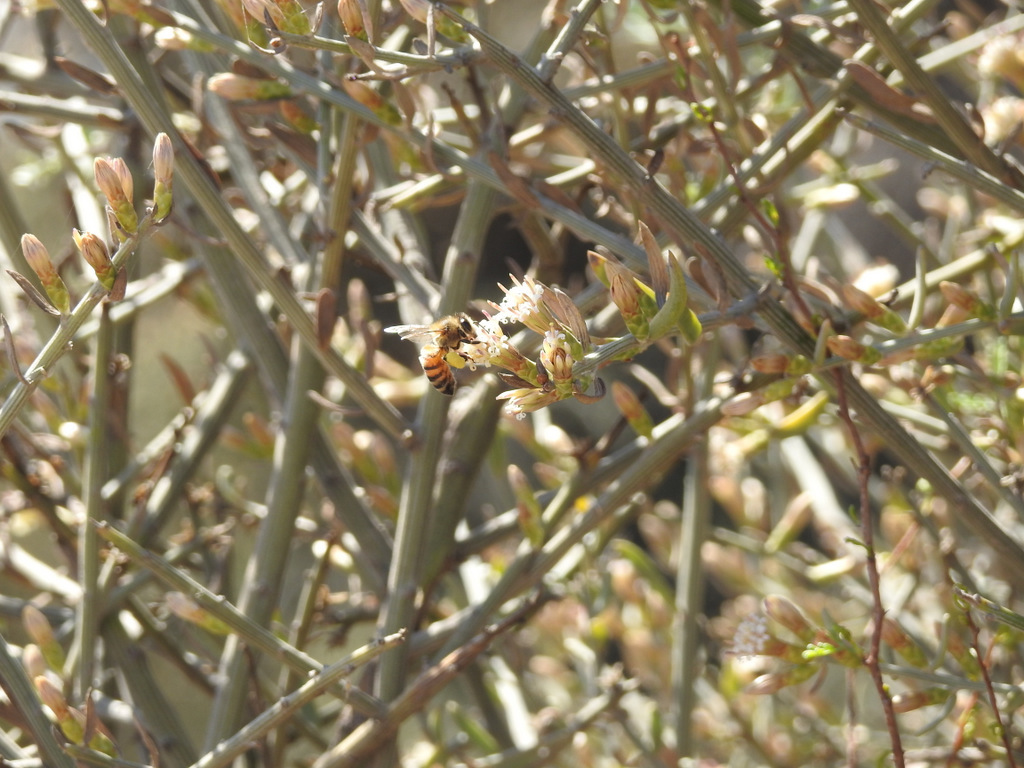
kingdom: Animalia
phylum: Arthropoda
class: Insecta
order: Hymenoptera
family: Apidae
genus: Apis
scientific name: Apis mellifera
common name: Honey bee
